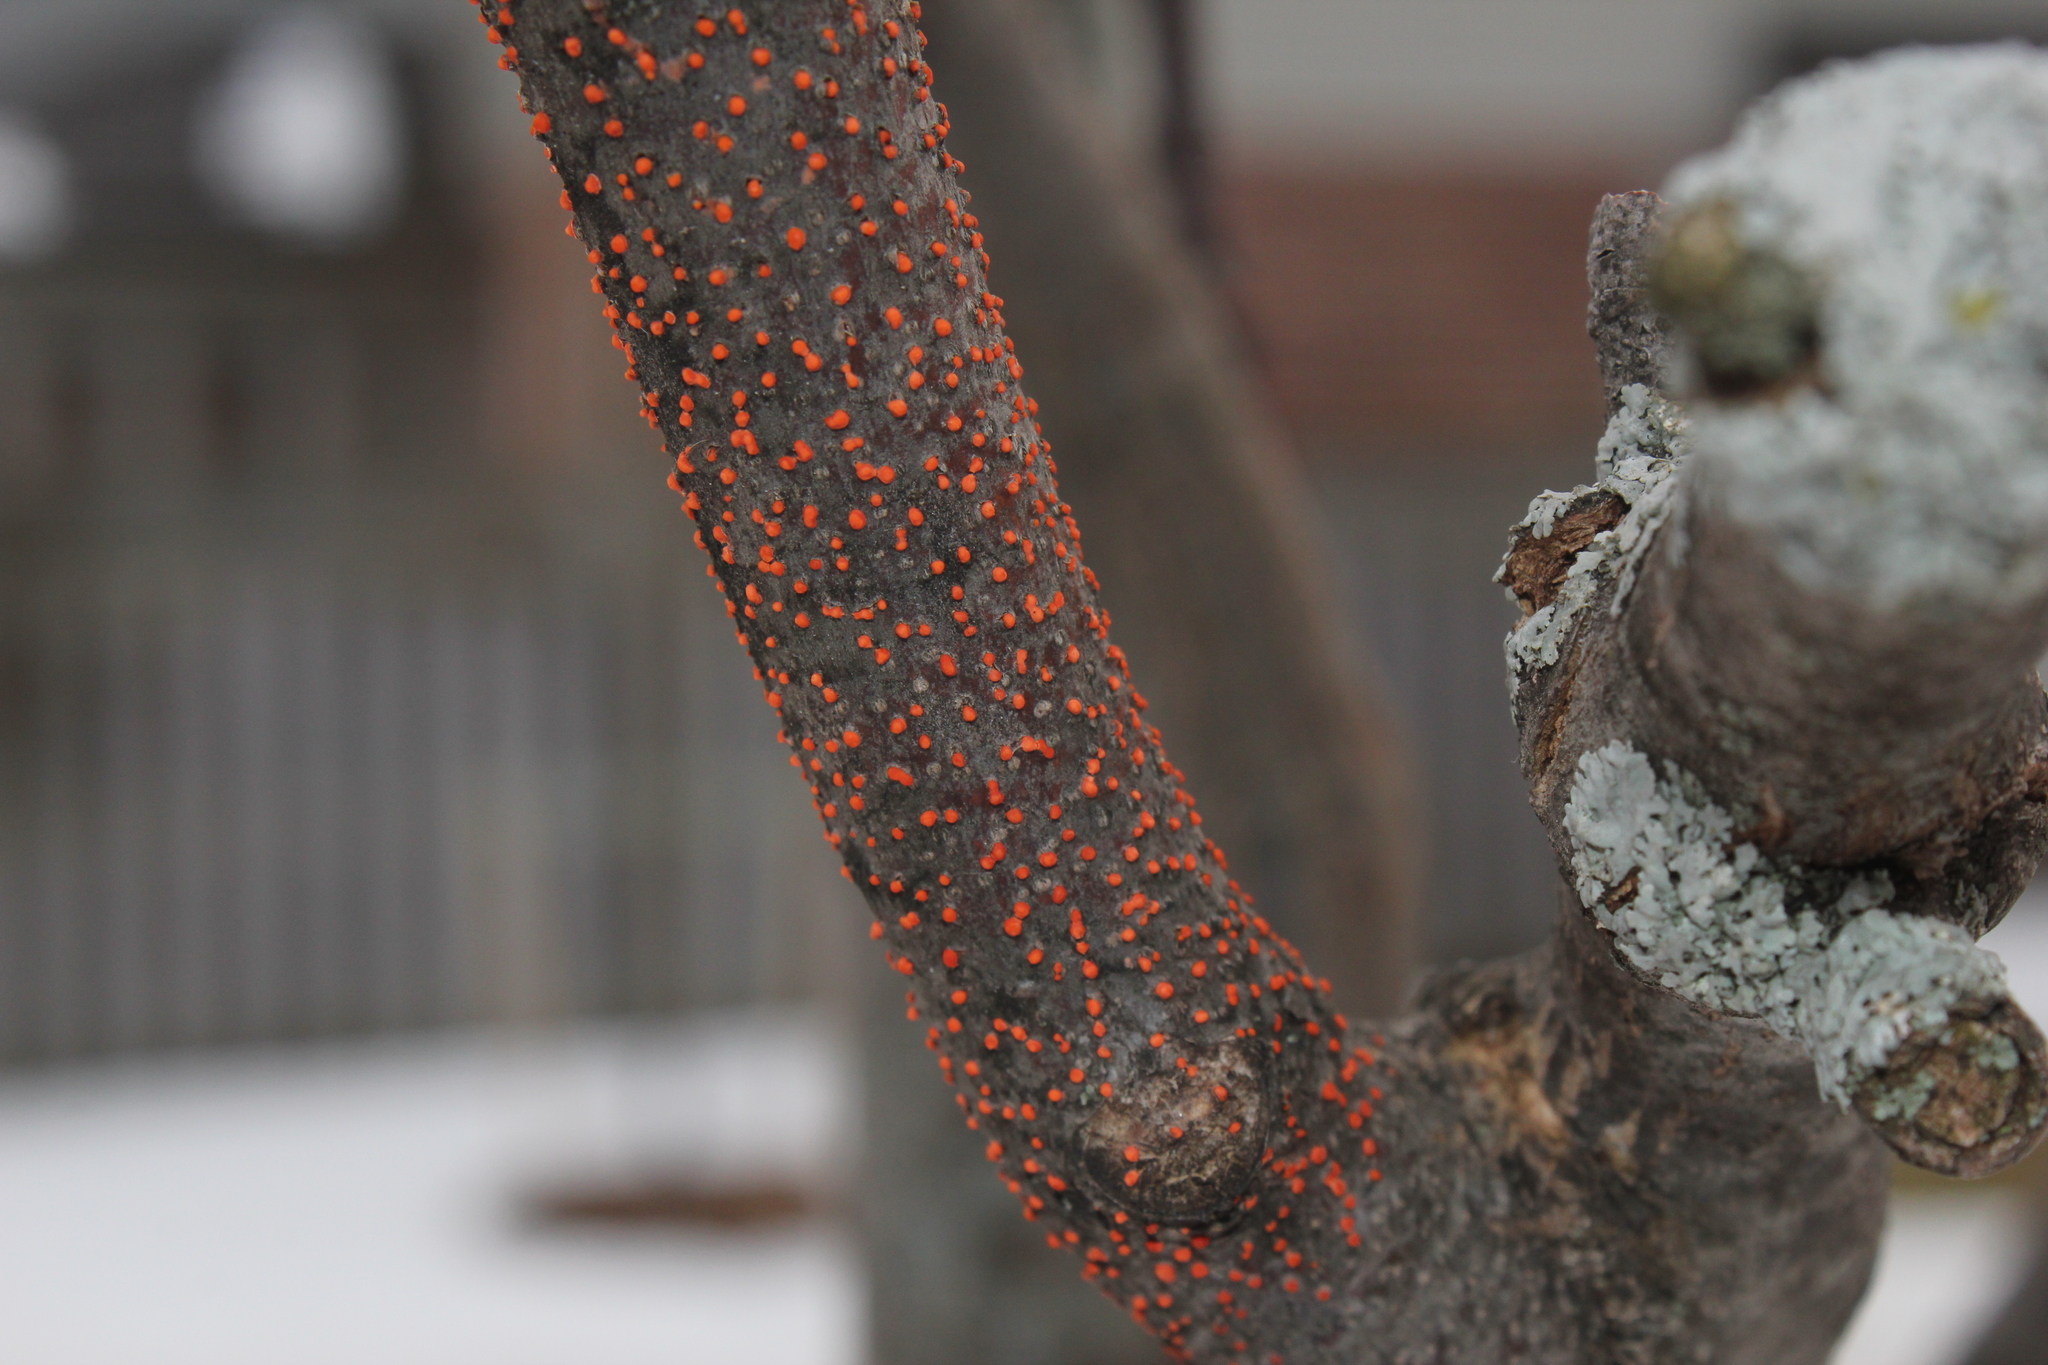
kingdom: Fungi
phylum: Ascomycota
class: Sordariomycetes
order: Hypocreales
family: Nectriaceae
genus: Nectria
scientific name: Nectria cinnabarina
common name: Coral spot
